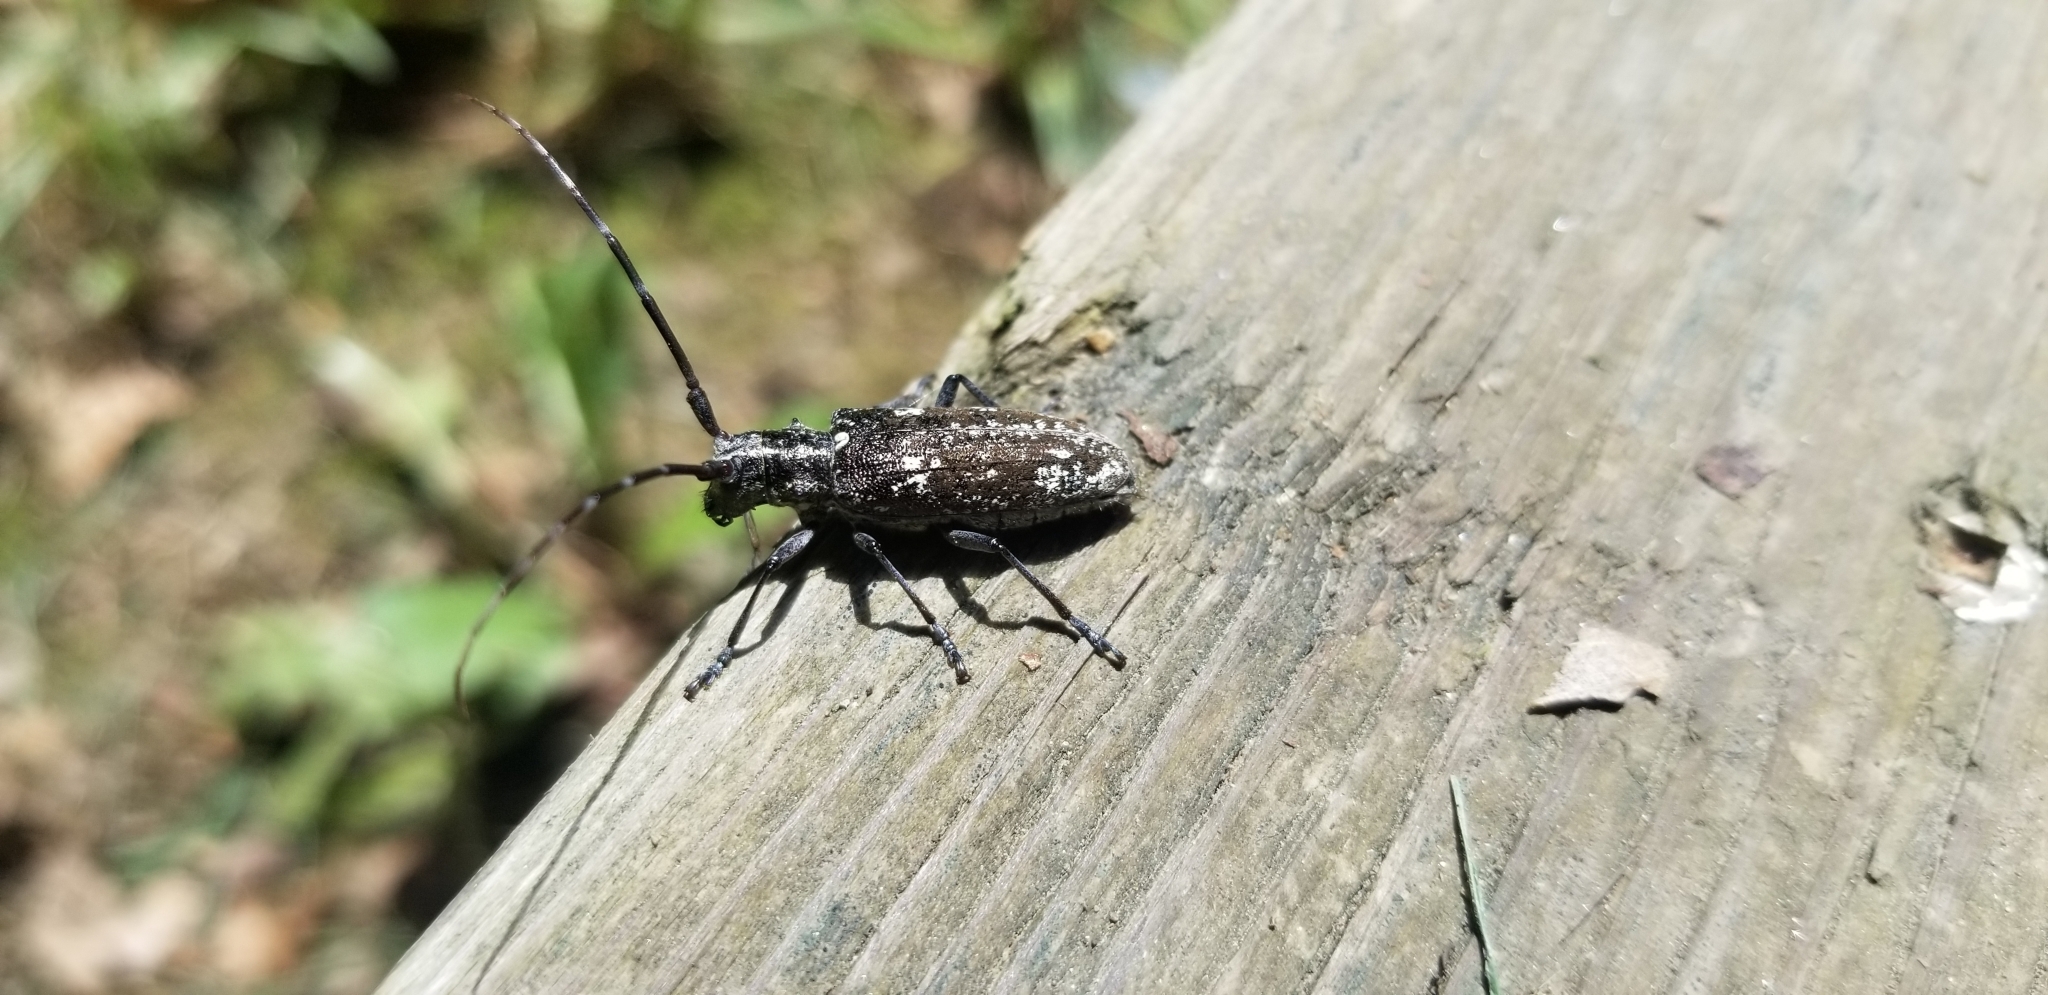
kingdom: Animalia
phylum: Arthropoda
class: Insecta
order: Coleoptera
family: Cerambycidae
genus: Monochamus
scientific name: Monochamus scutellatus
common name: White-spotted sawyer beetle
